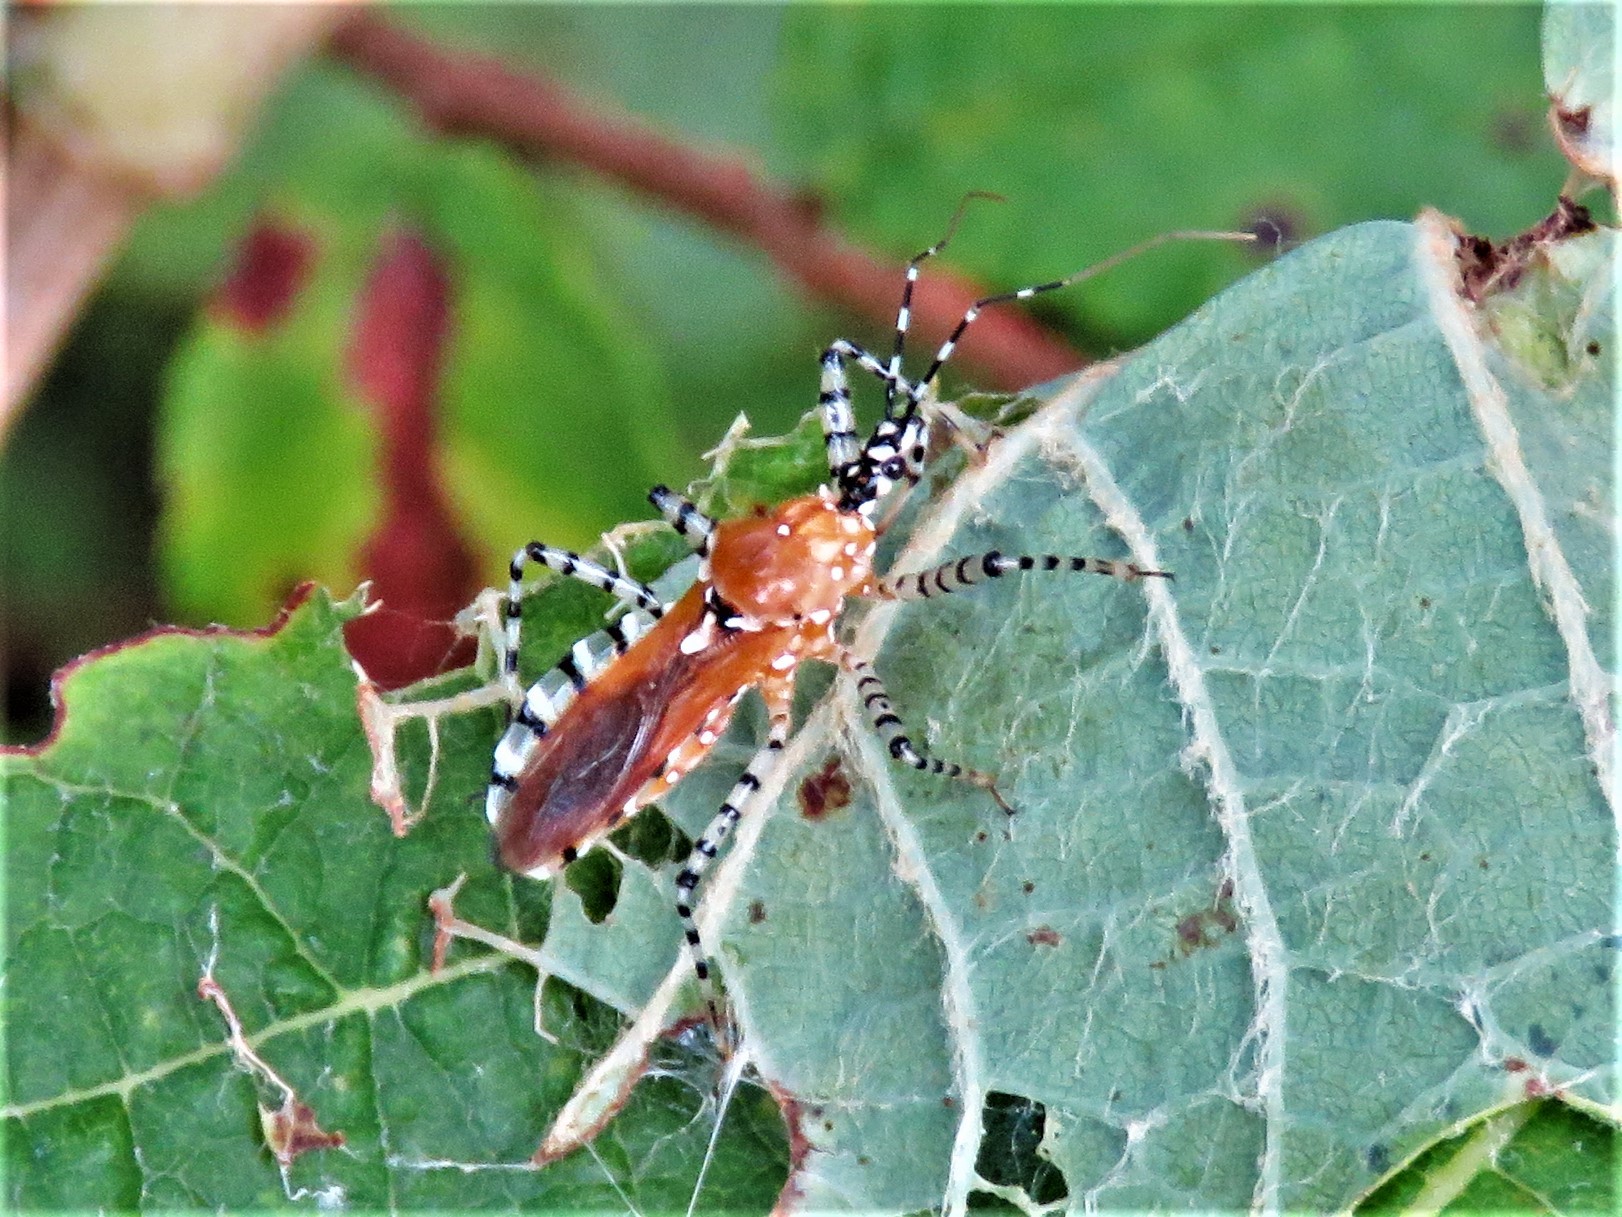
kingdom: Animalia
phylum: Arthropoda
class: Insecta
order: Hemiptera
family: Reduviidae
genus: Pselliopus
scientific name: Pselliopus cinctus
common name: Ringed assassin bug
